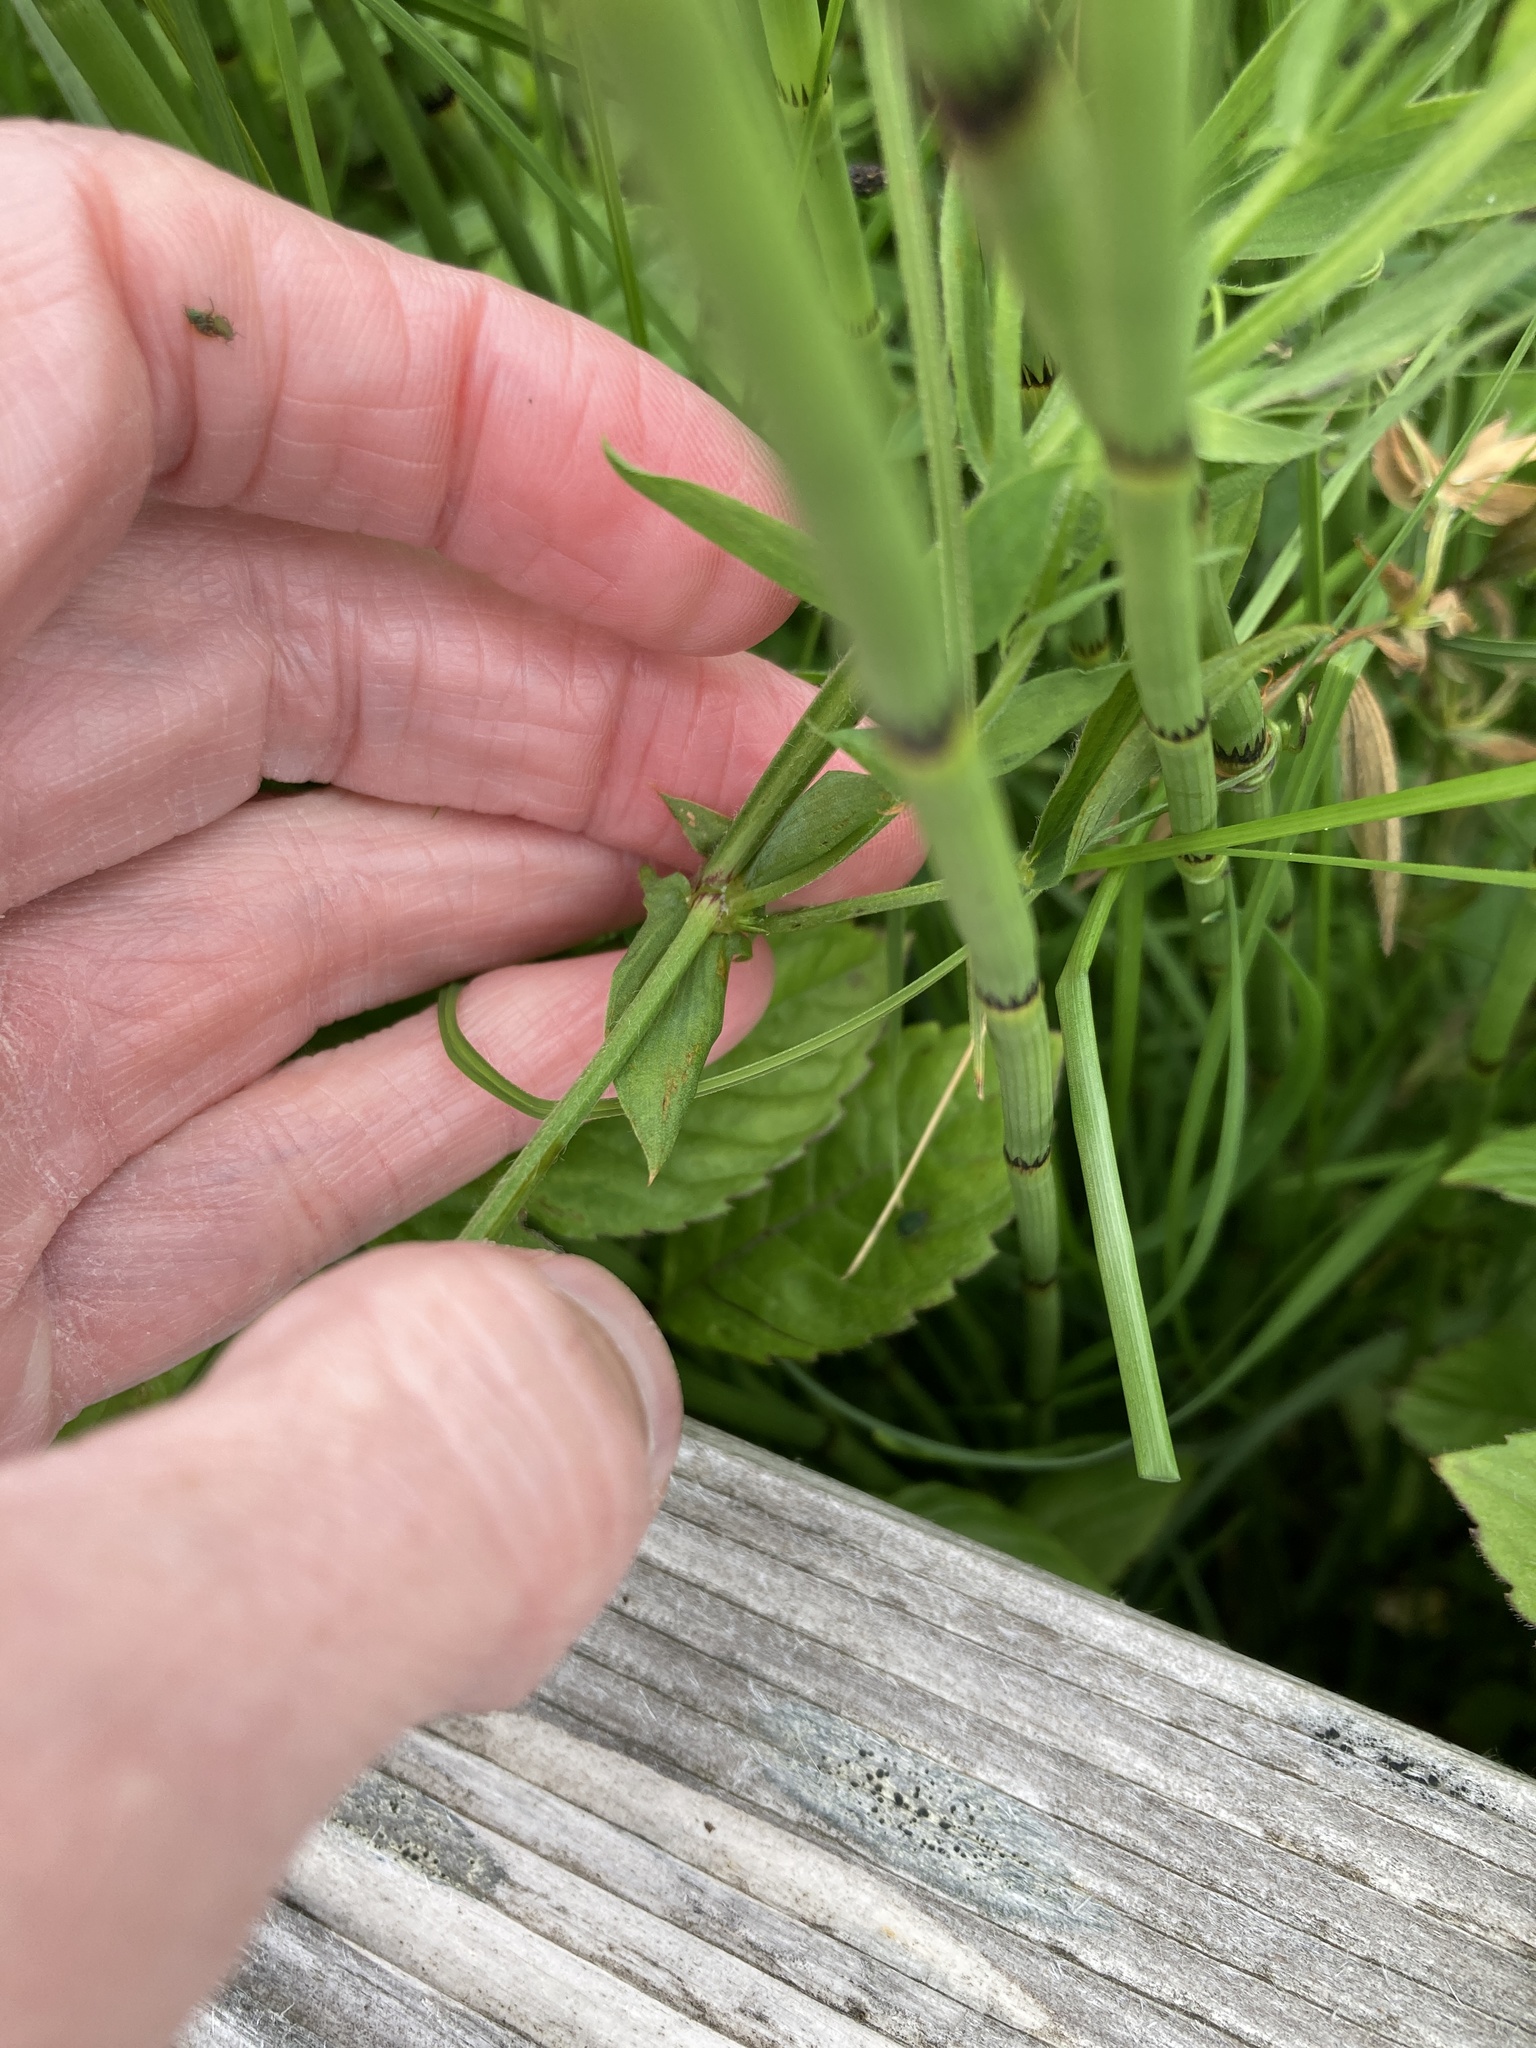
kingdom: Plantae
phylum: Tracheophyta
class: Magnoliopsida
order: Fabales
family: Fabaceae
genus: Lathyrus
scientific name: Lathyrus pratensis
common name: Meadow vetchling
